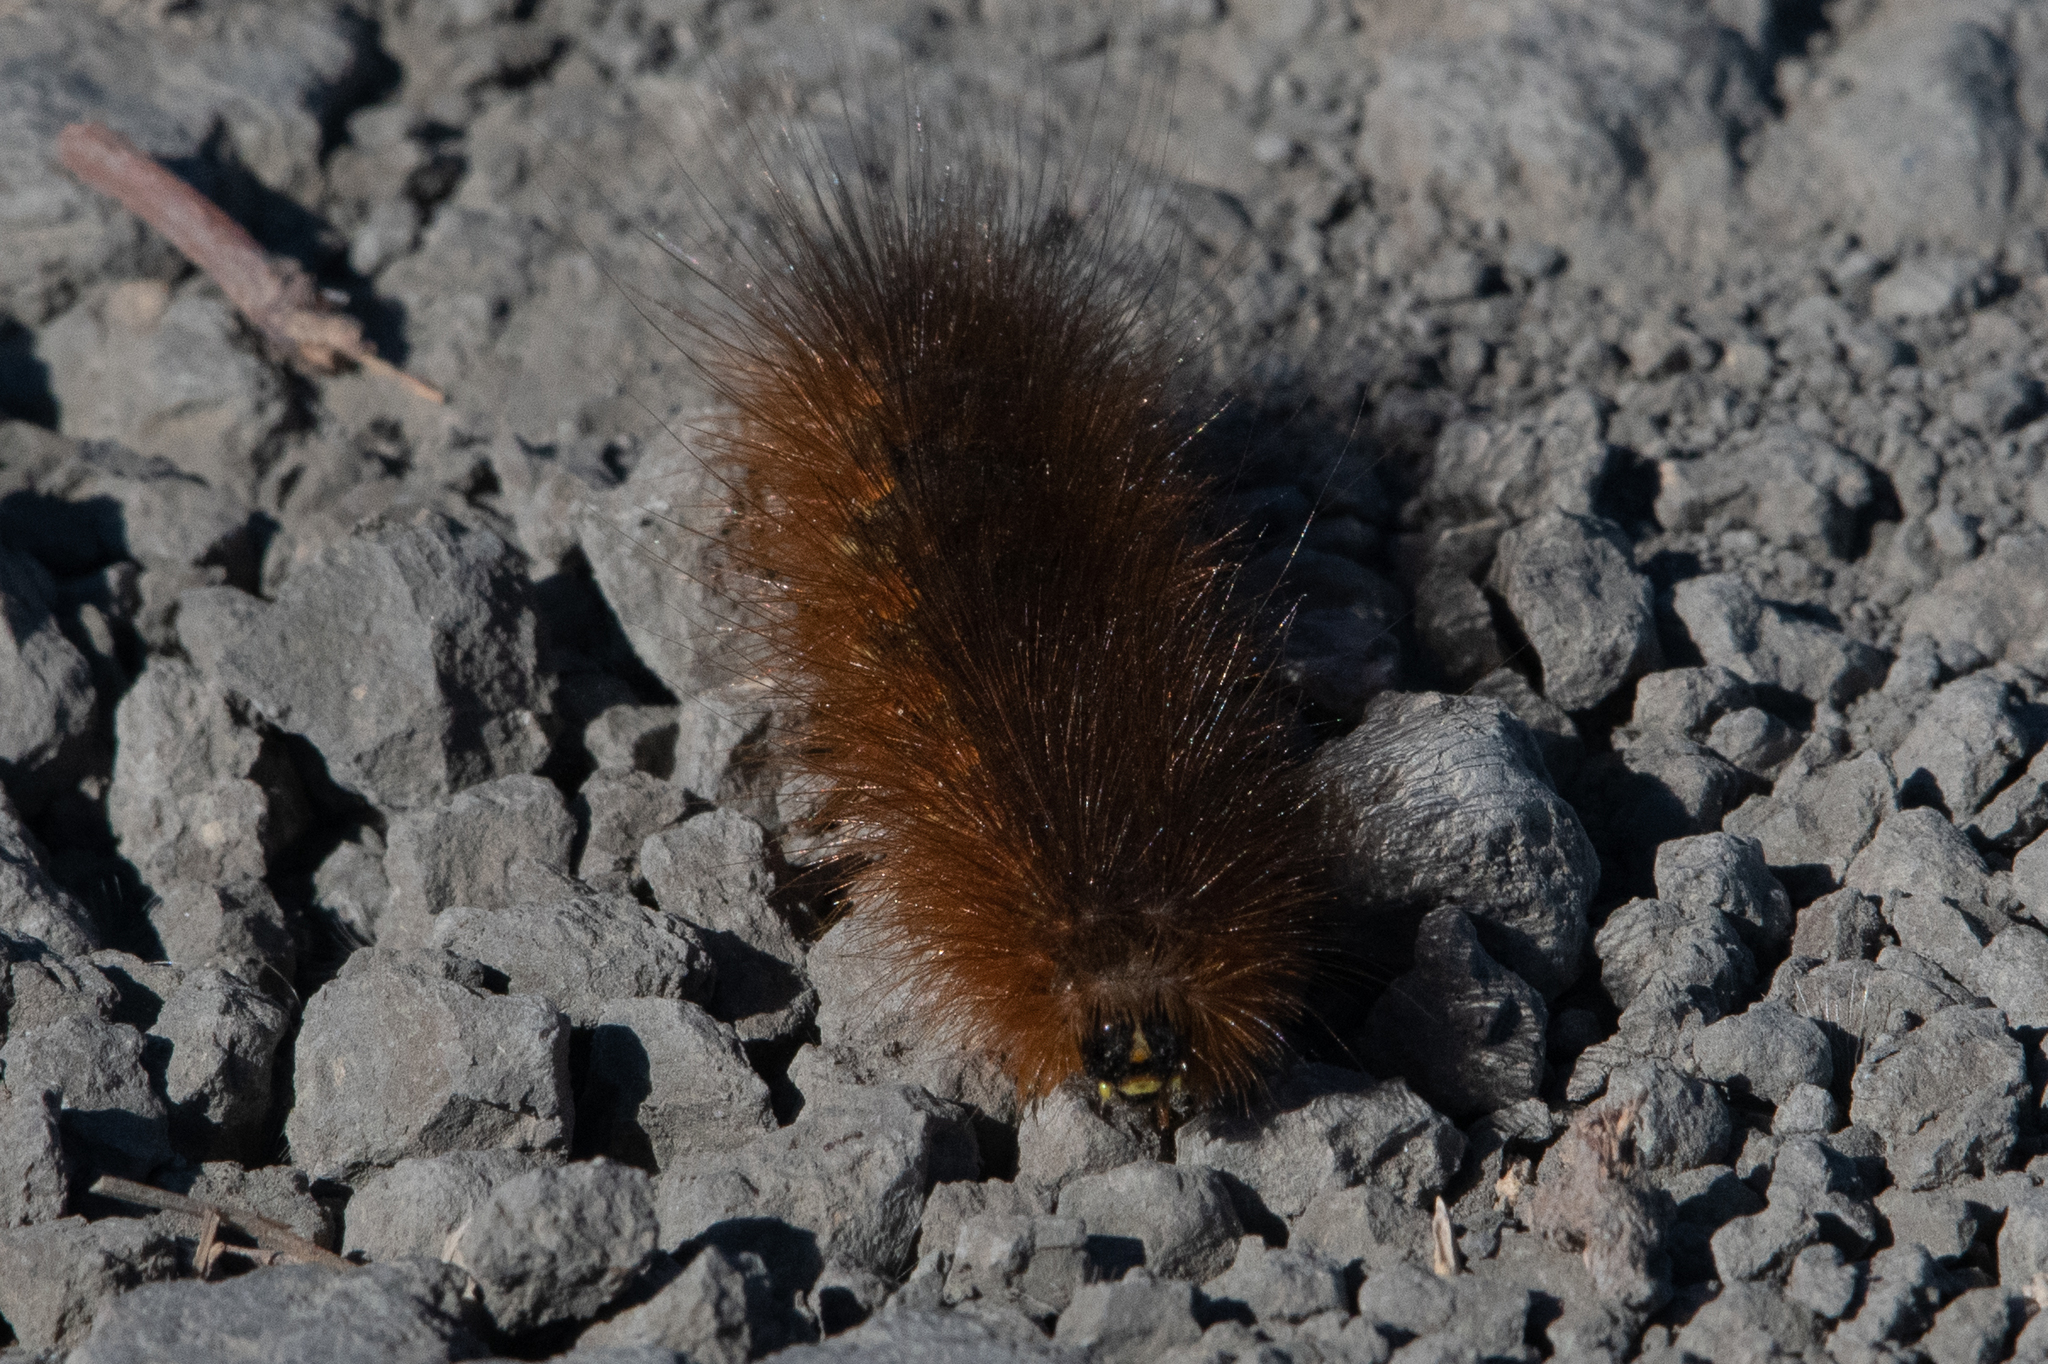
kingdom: Animalia
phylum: Arthropoda
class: Insecta
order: Lepidoptera
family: Erebidae
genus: Estigmene
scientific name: Estigmene acrea
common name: Salt marsh moth
